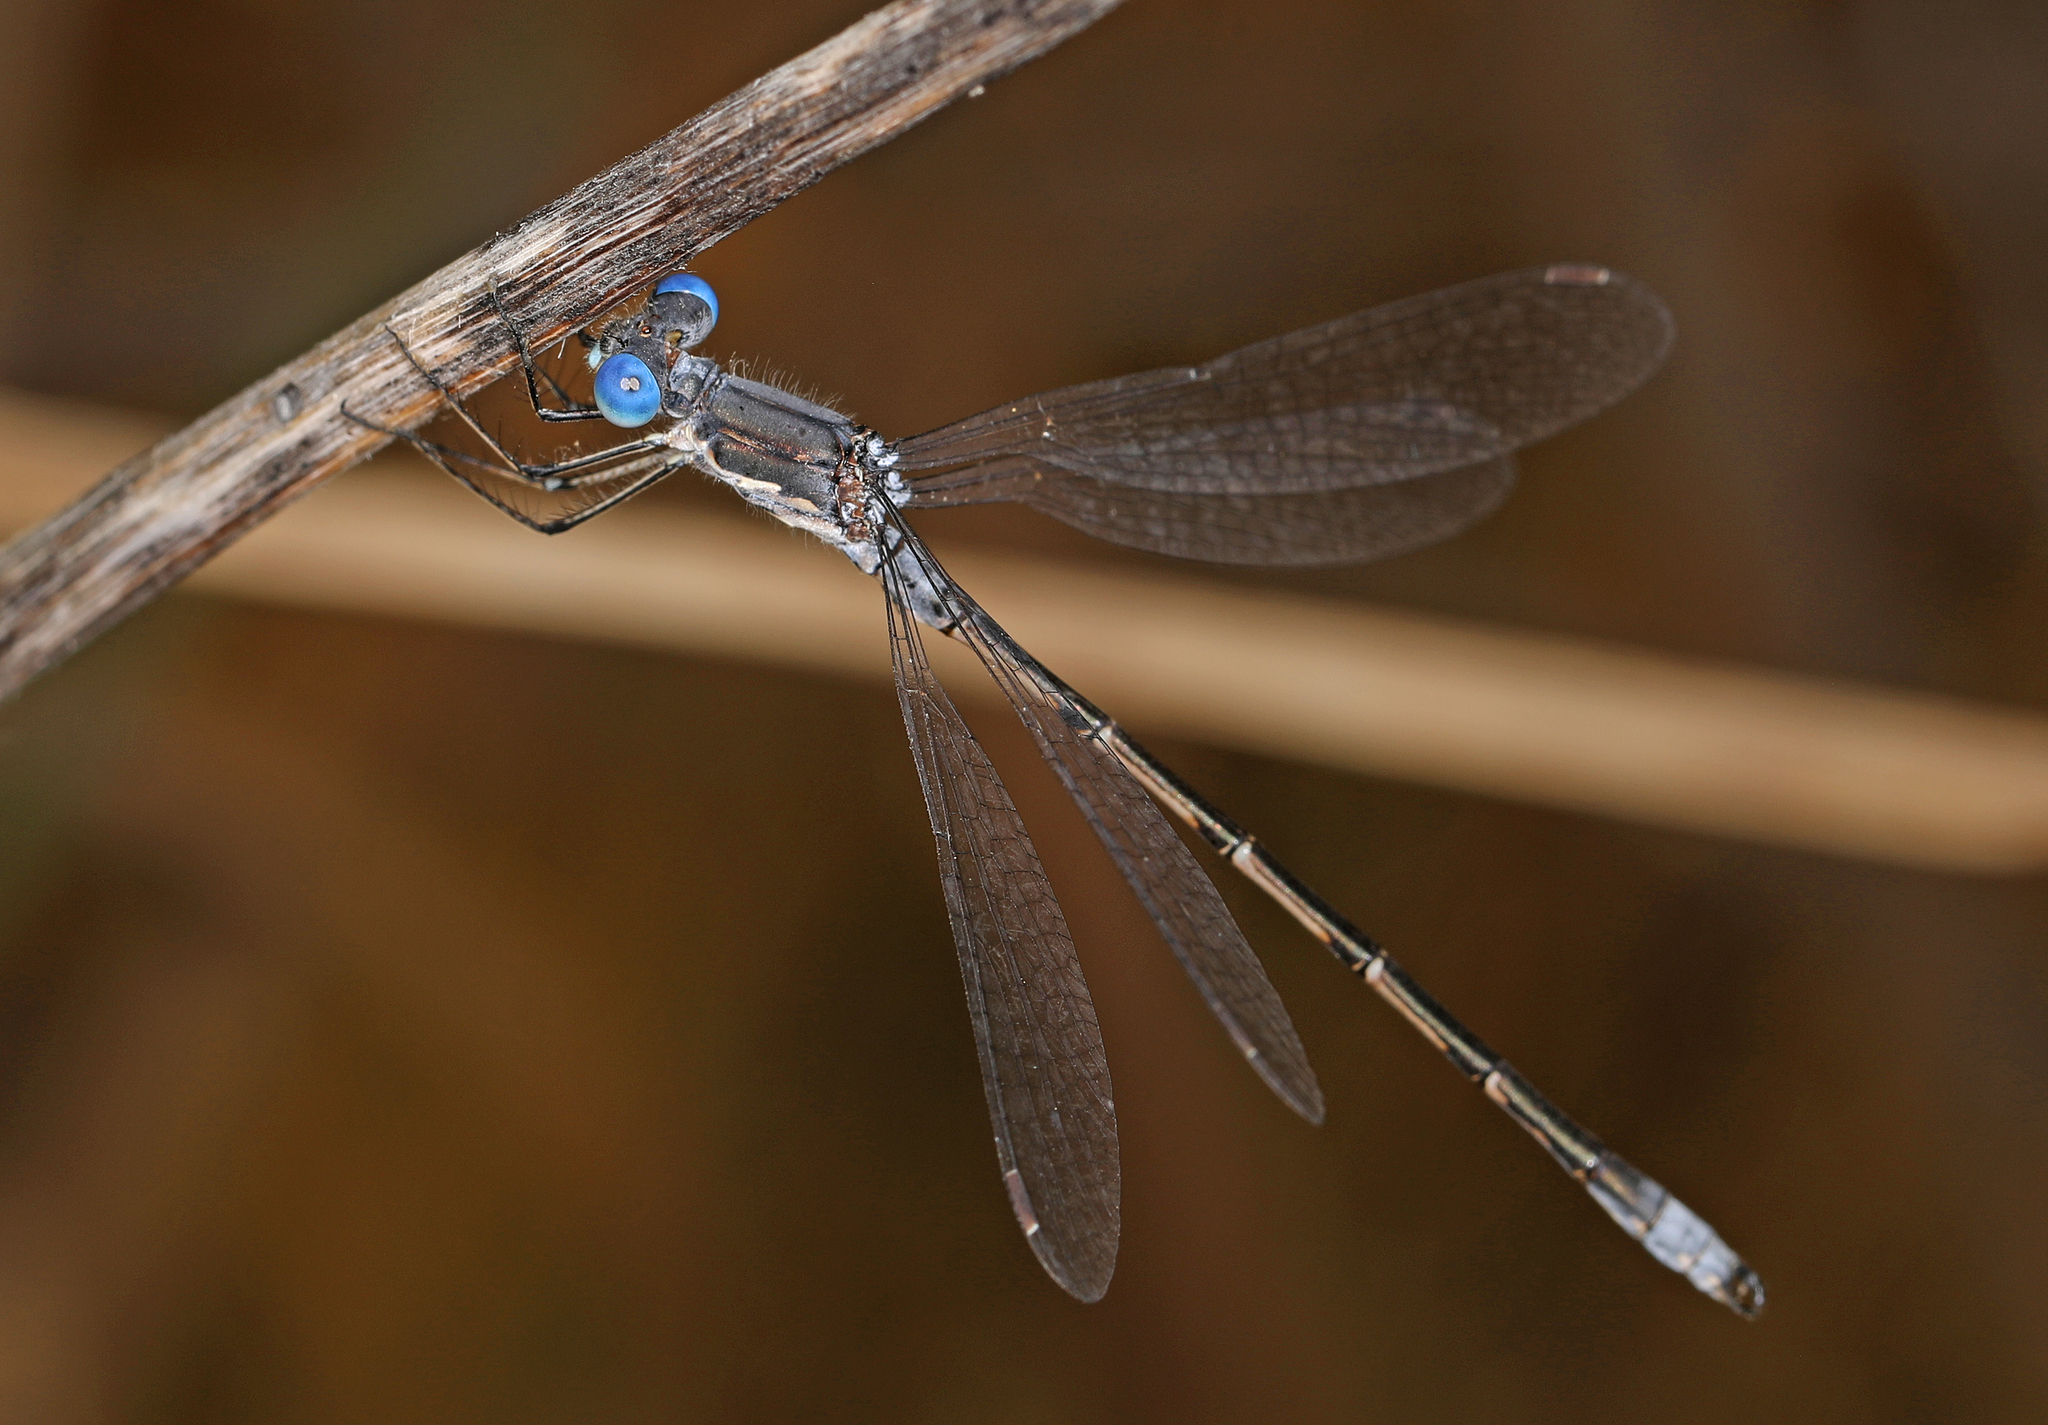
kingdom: Animalia
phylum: Arthropoda
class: Insecta
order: Odonata
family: Lestidae
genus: Lestes
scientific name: Lestes congener
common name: Spotted spreadwing
